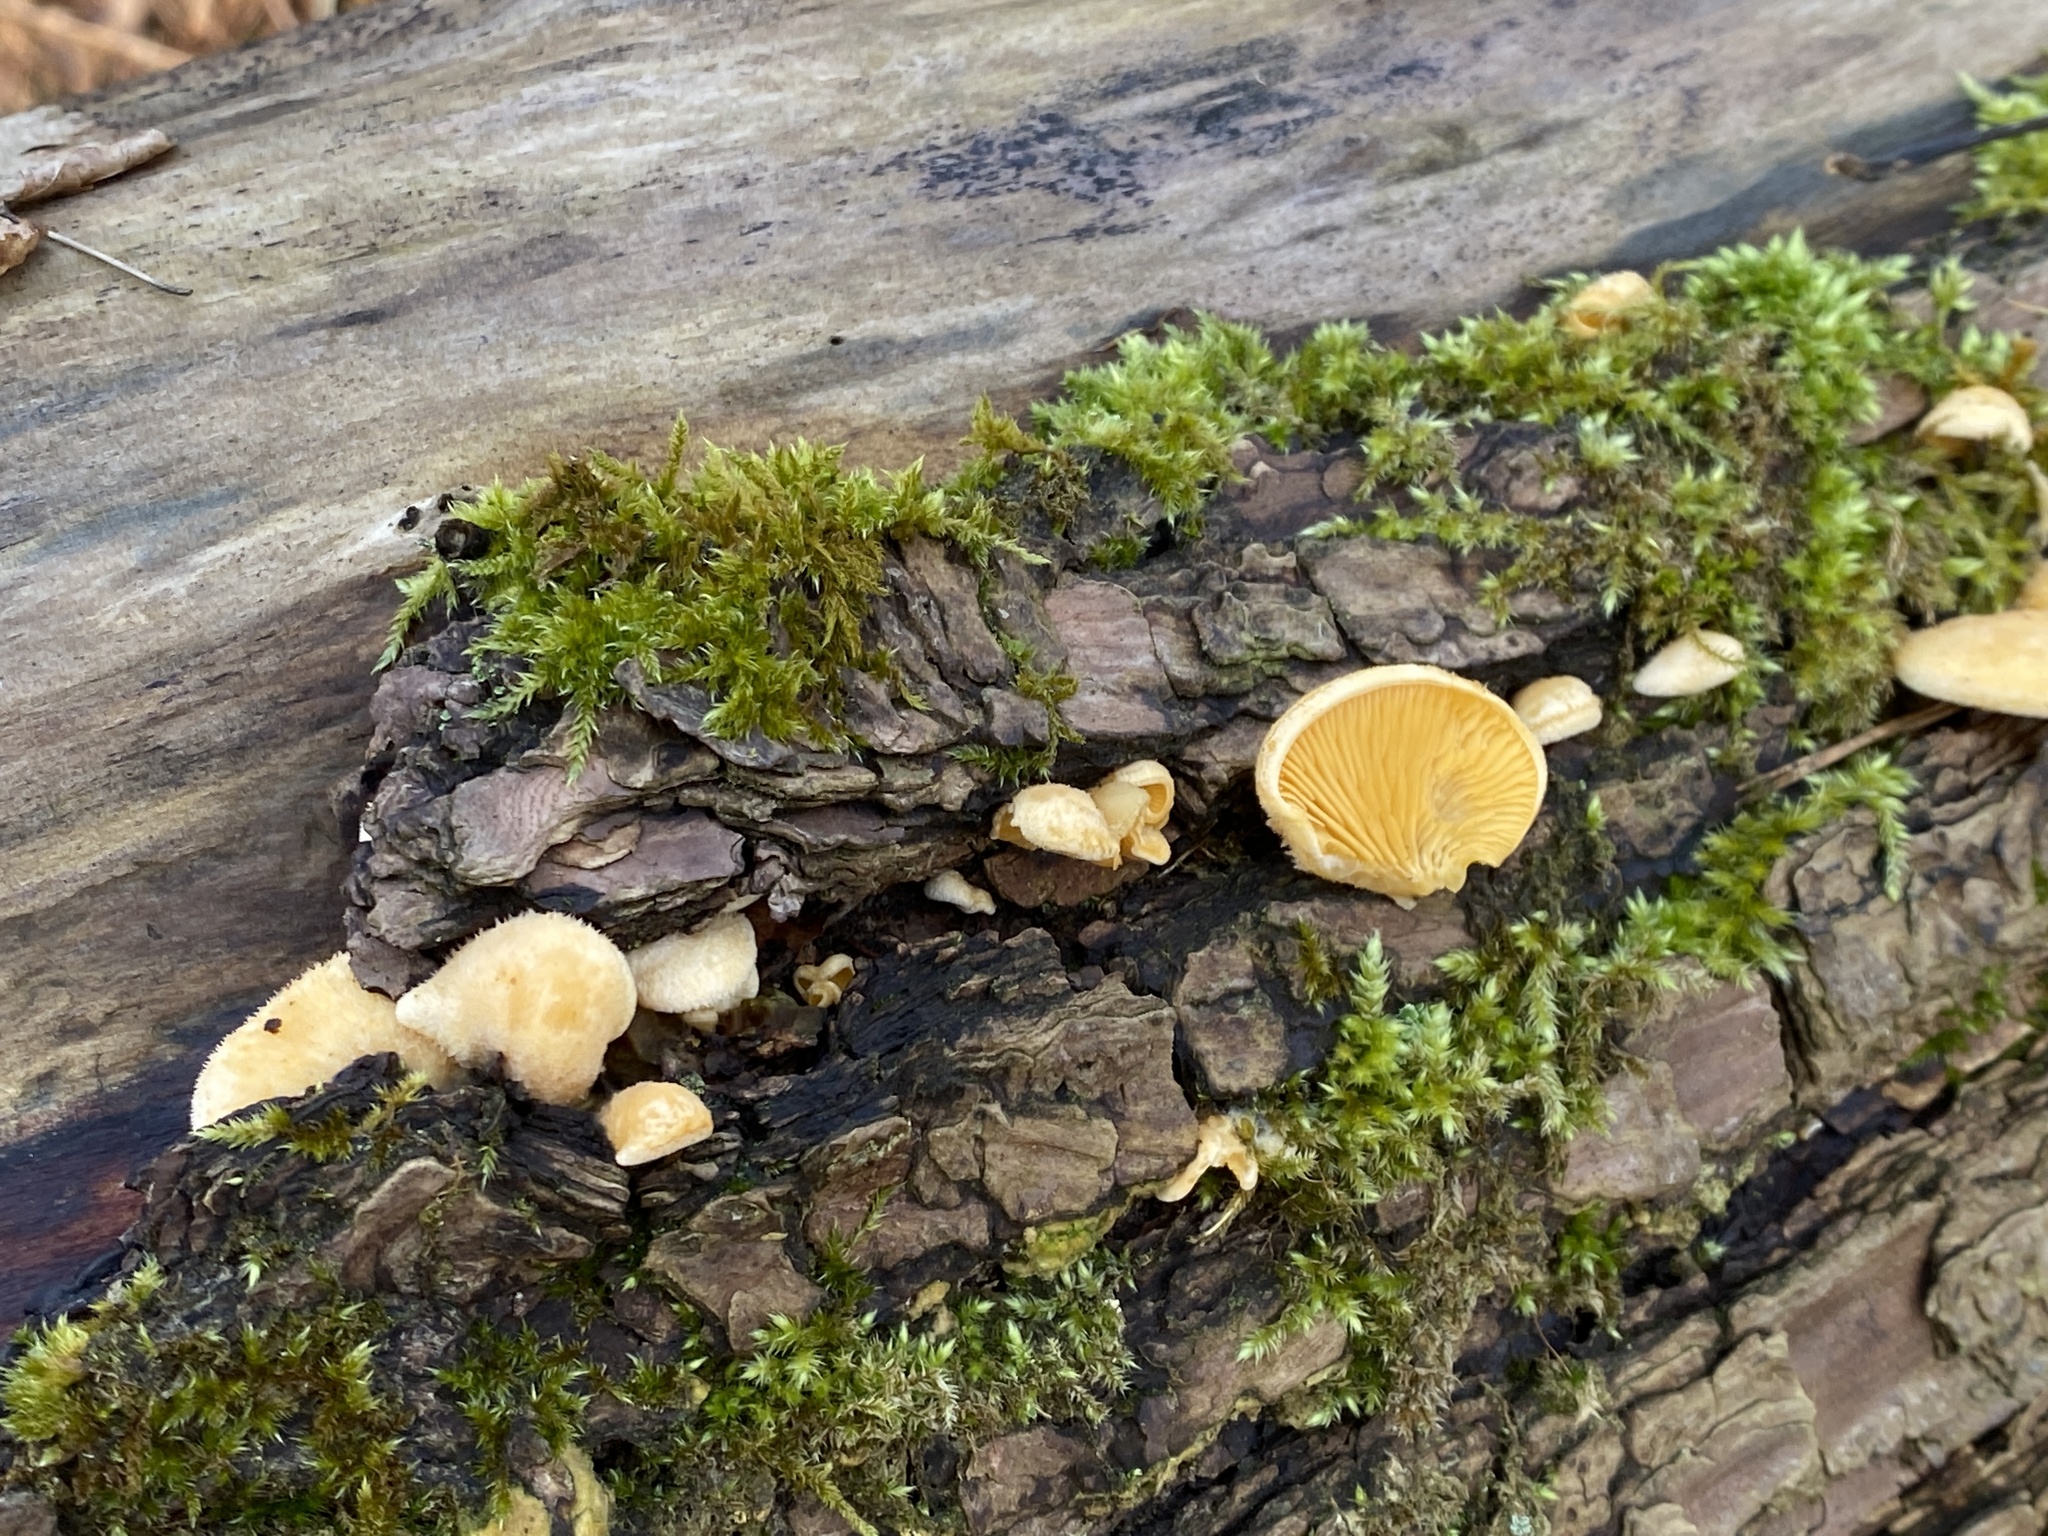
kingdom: Fungi
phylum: Basidiomycota
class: Agaricomycetes
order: Agaricales
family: Phyllotopsidaceae
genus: Phyllotopsis
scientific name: Phyllotopsis nidulans
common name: Orange mock oyster
